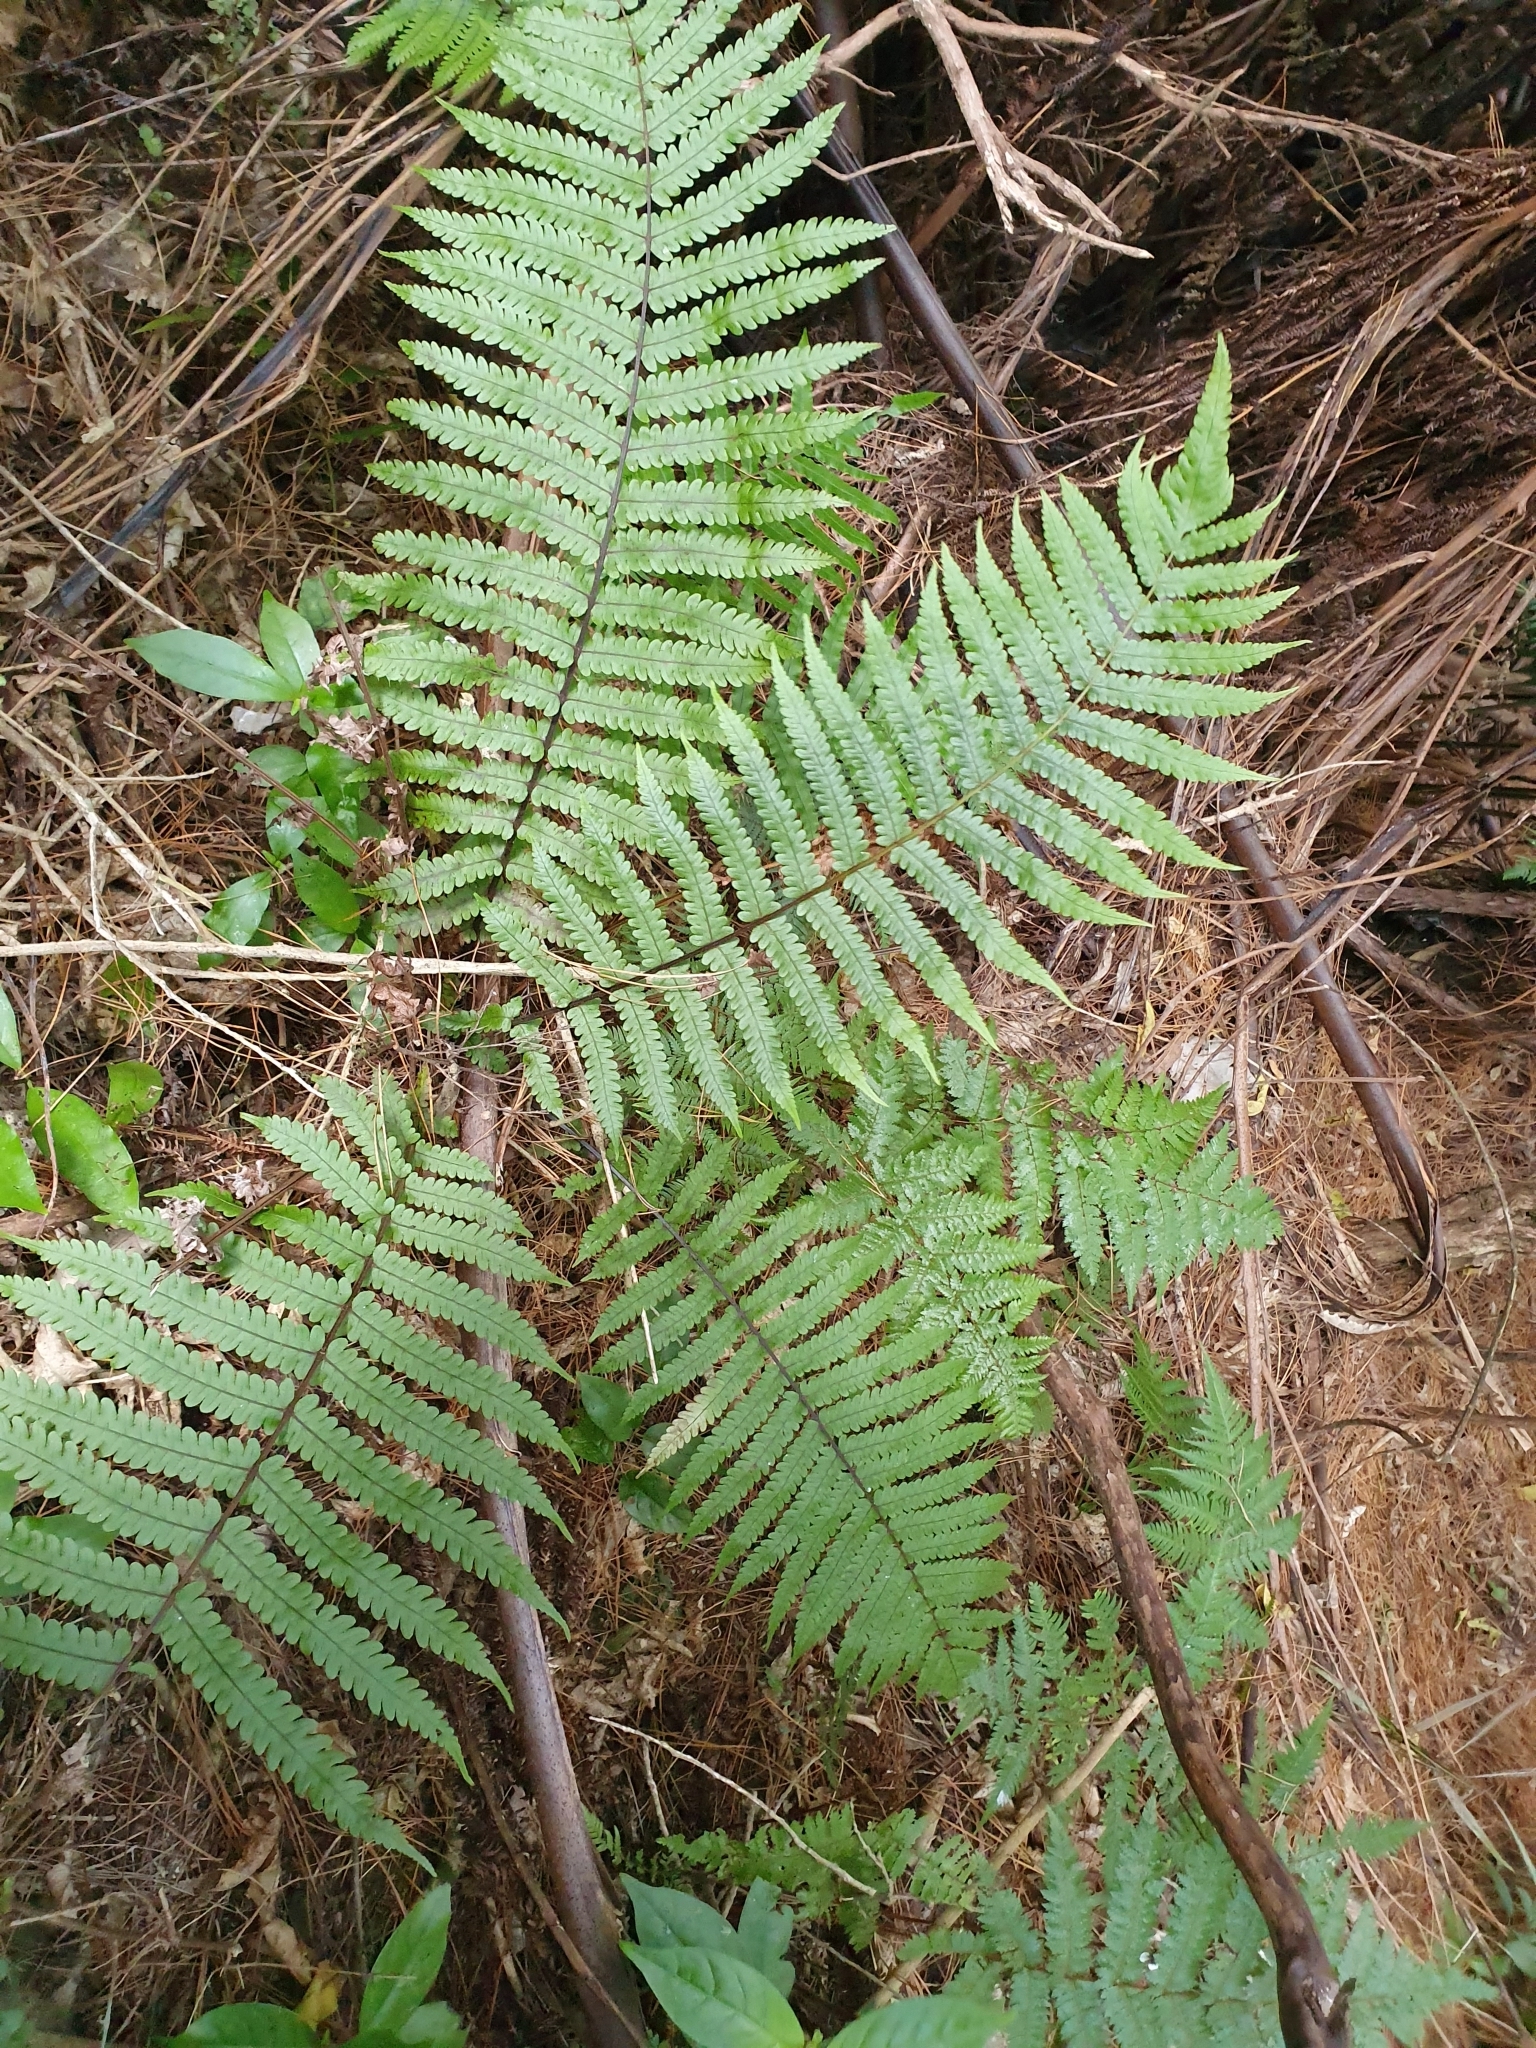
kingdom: Plantae
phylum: Tracheophyta
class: Polypodiopsida
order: Polypodiales
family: Thelypteridaceae
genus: Pakau
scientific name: Pakau pennigera
